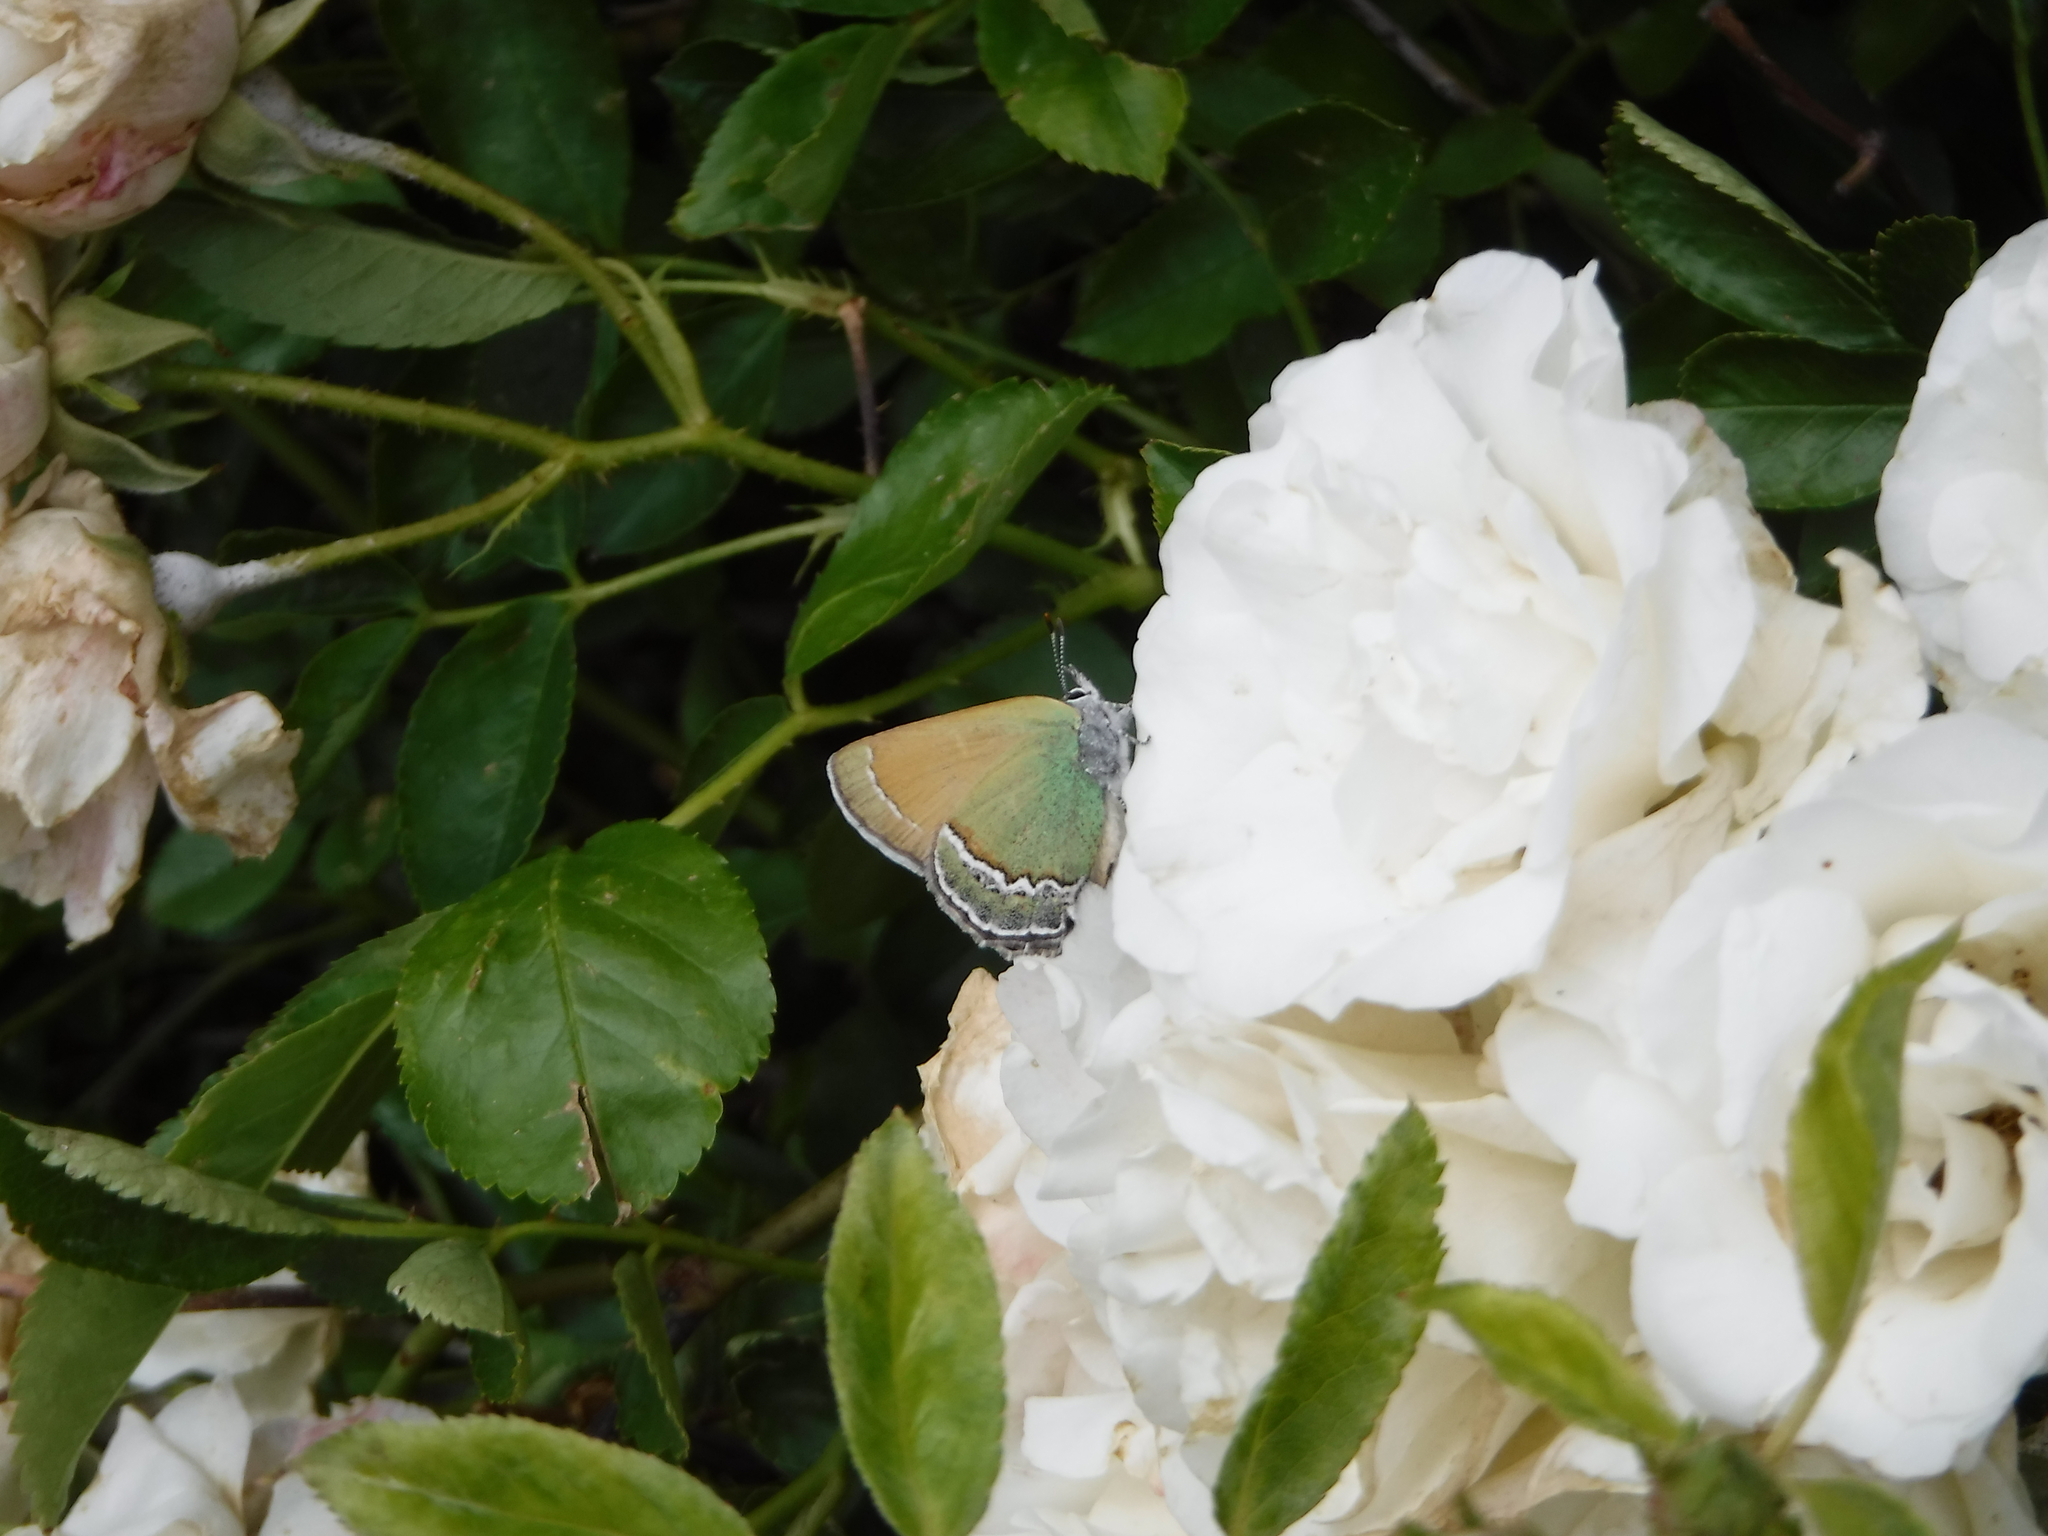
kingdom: Animalia
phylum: Arthropoda
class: Insecta
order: Lepidoptera
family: Lycaenidae
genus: Sandia
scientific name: Sandia mcfarlandi
